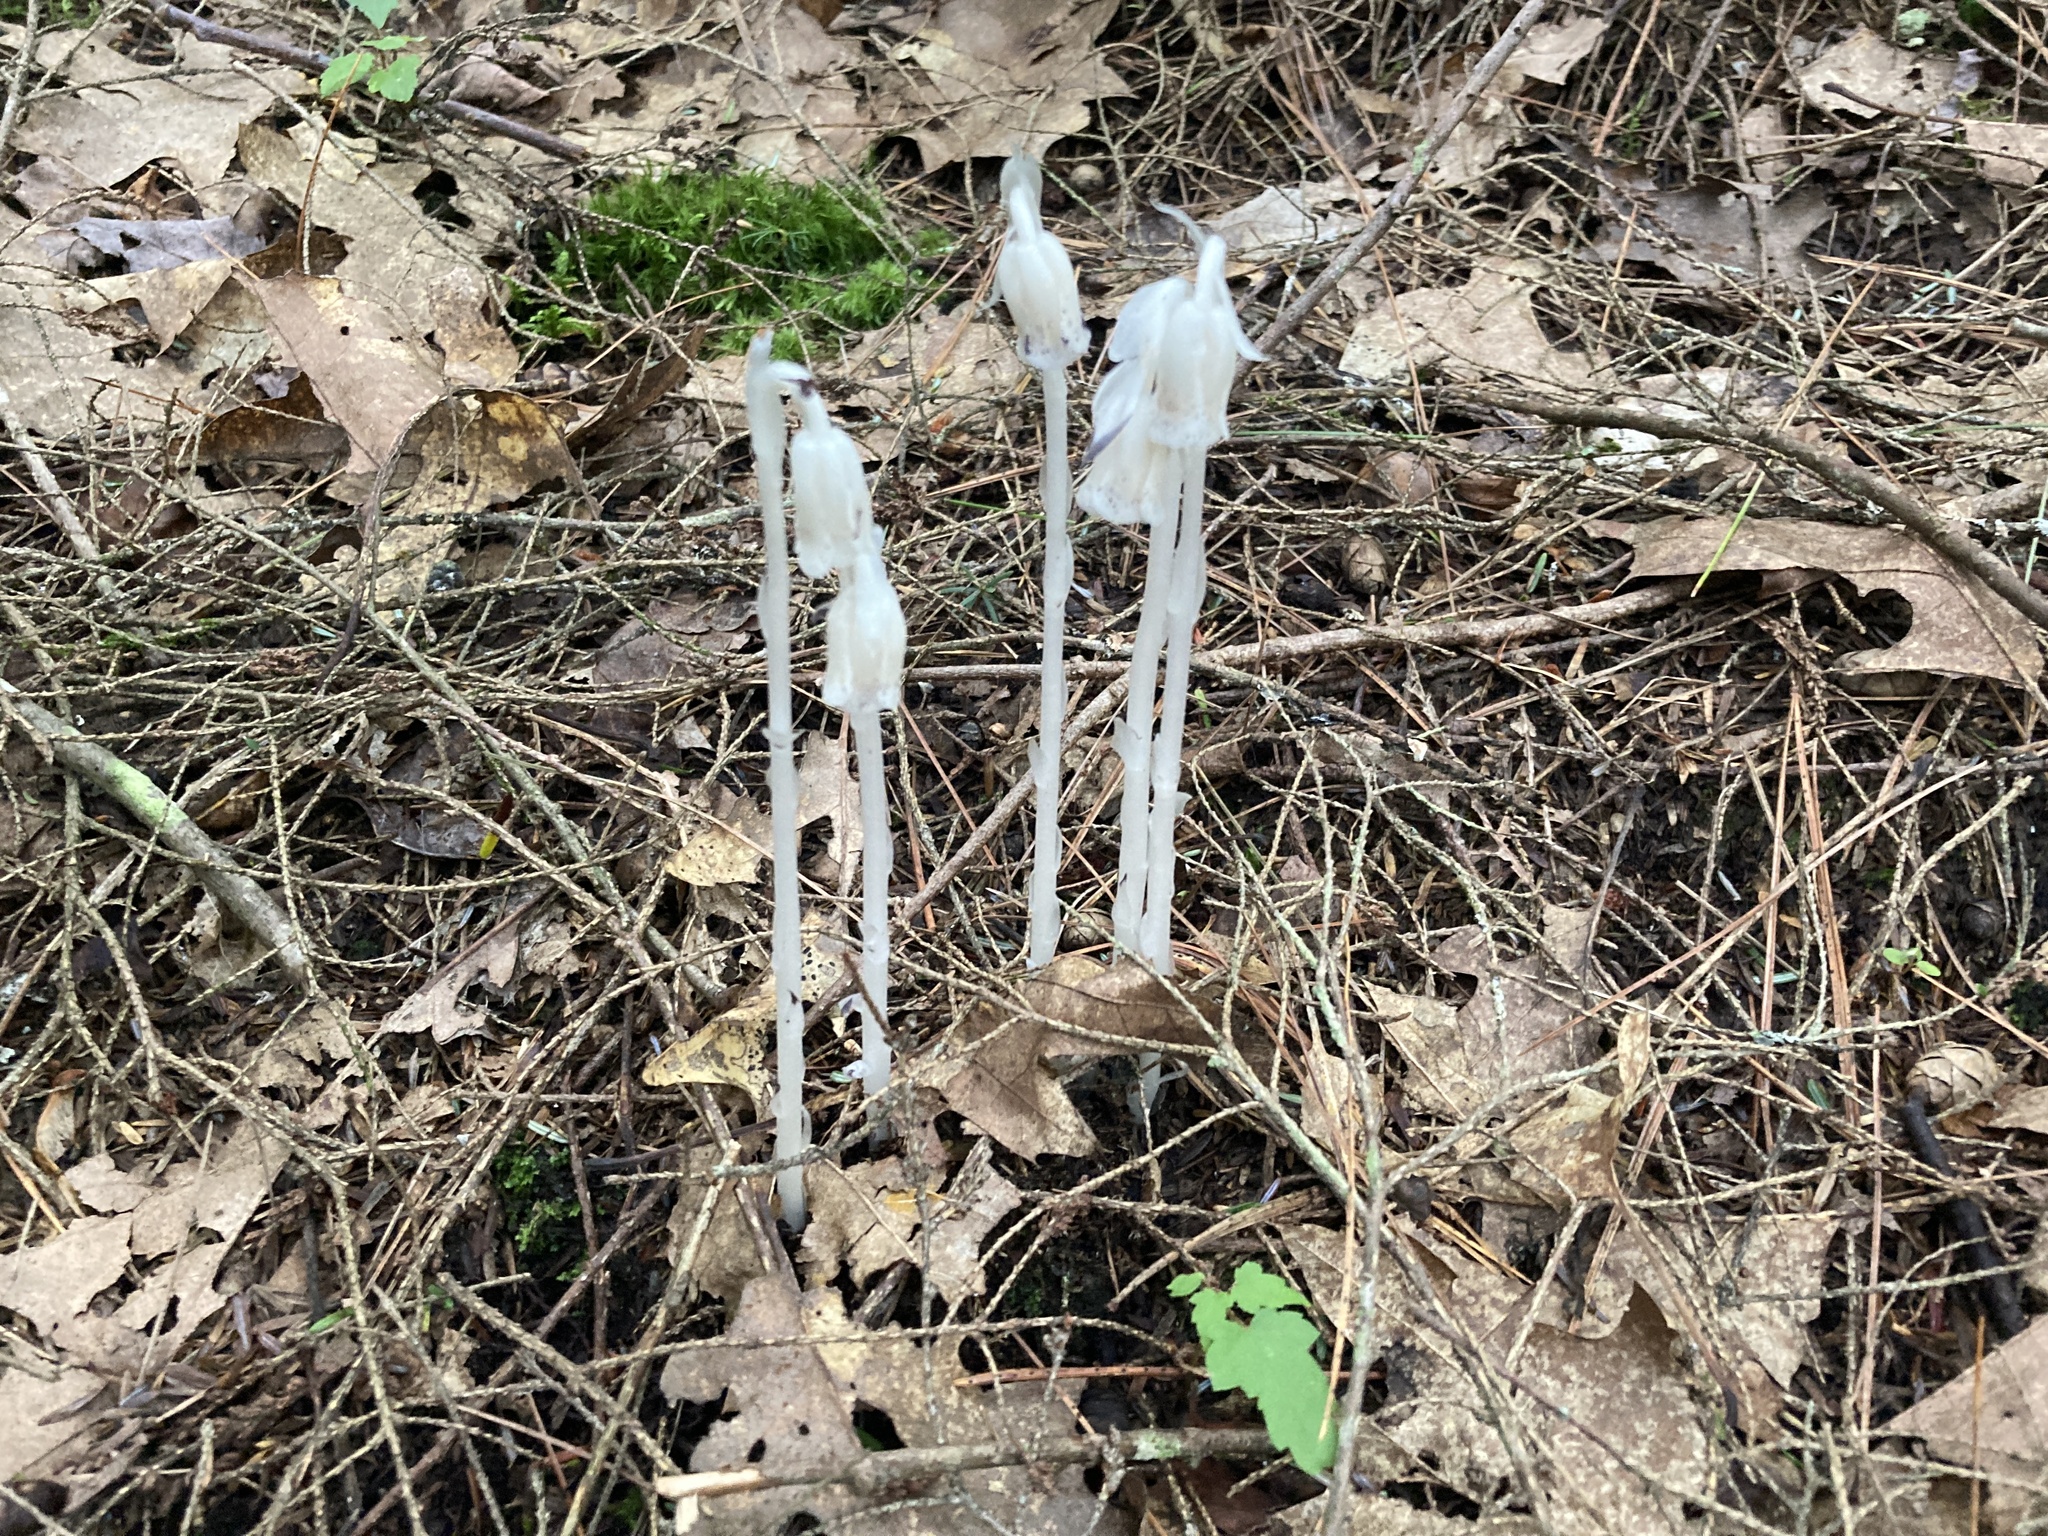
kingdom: Plantae
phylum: Tracheophyta
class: Magnoliopsida
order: Ericales
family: Ericaceae
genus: Monotropa
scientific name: Monotropa uniflora
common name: Convulsion root
